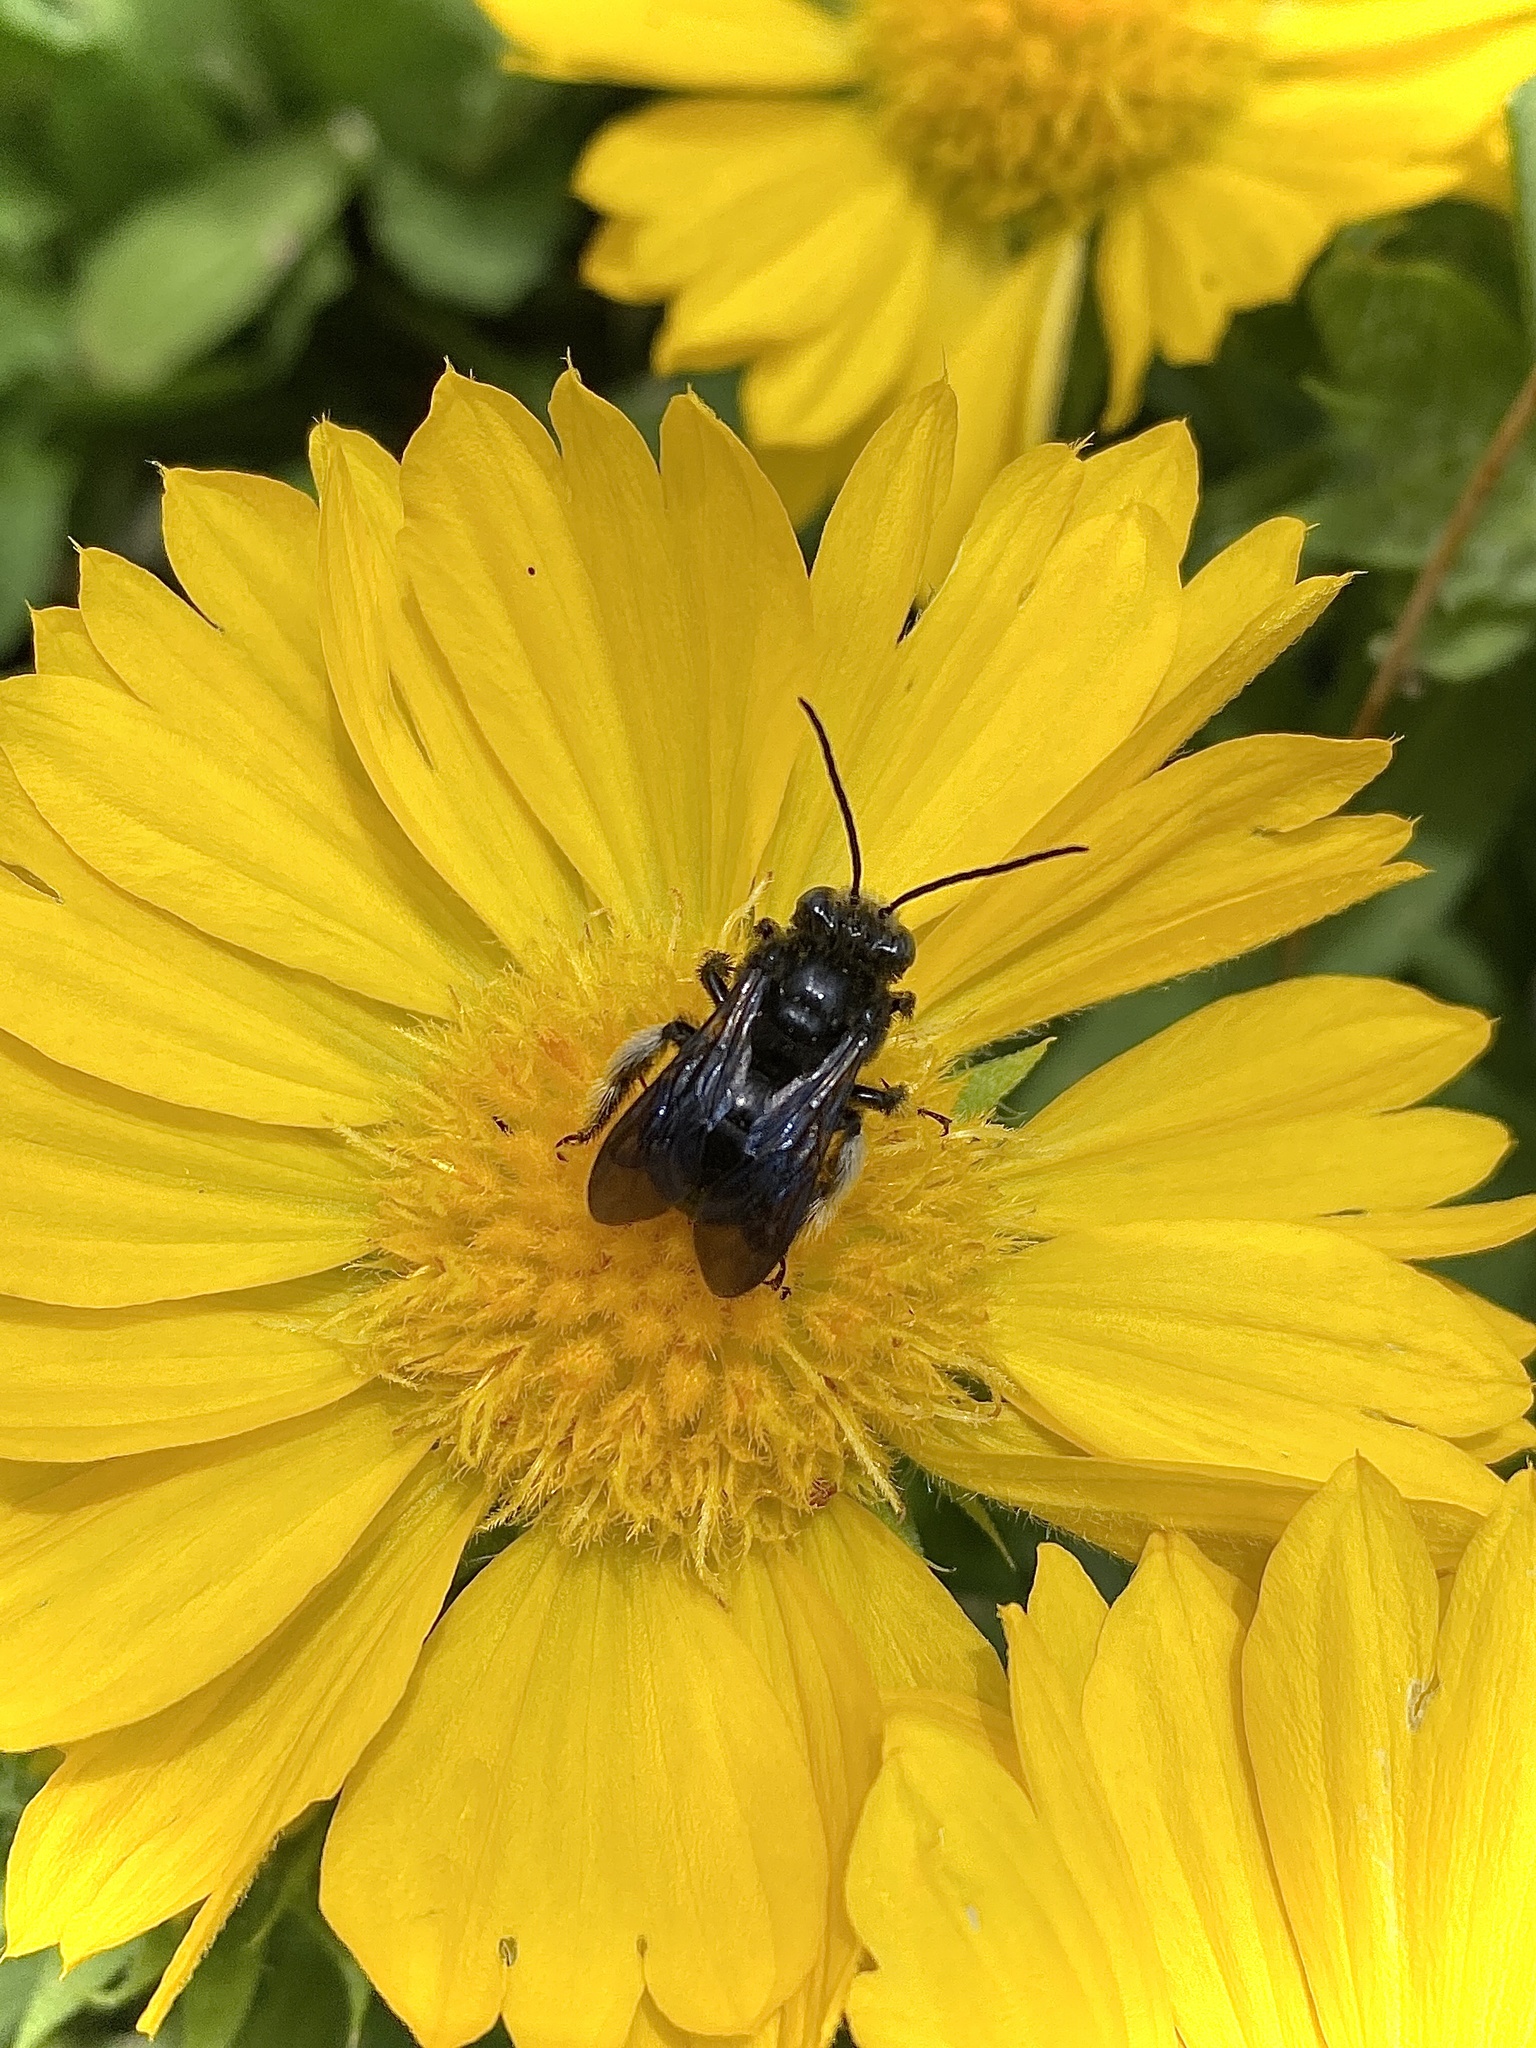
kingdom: Animalia
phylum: Arthropoda
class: Insecta
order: Hymenoptera
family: Apidae
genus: Melissodes
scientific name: Melissodes bimaculatus
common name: Two-spotted long-horned bee
